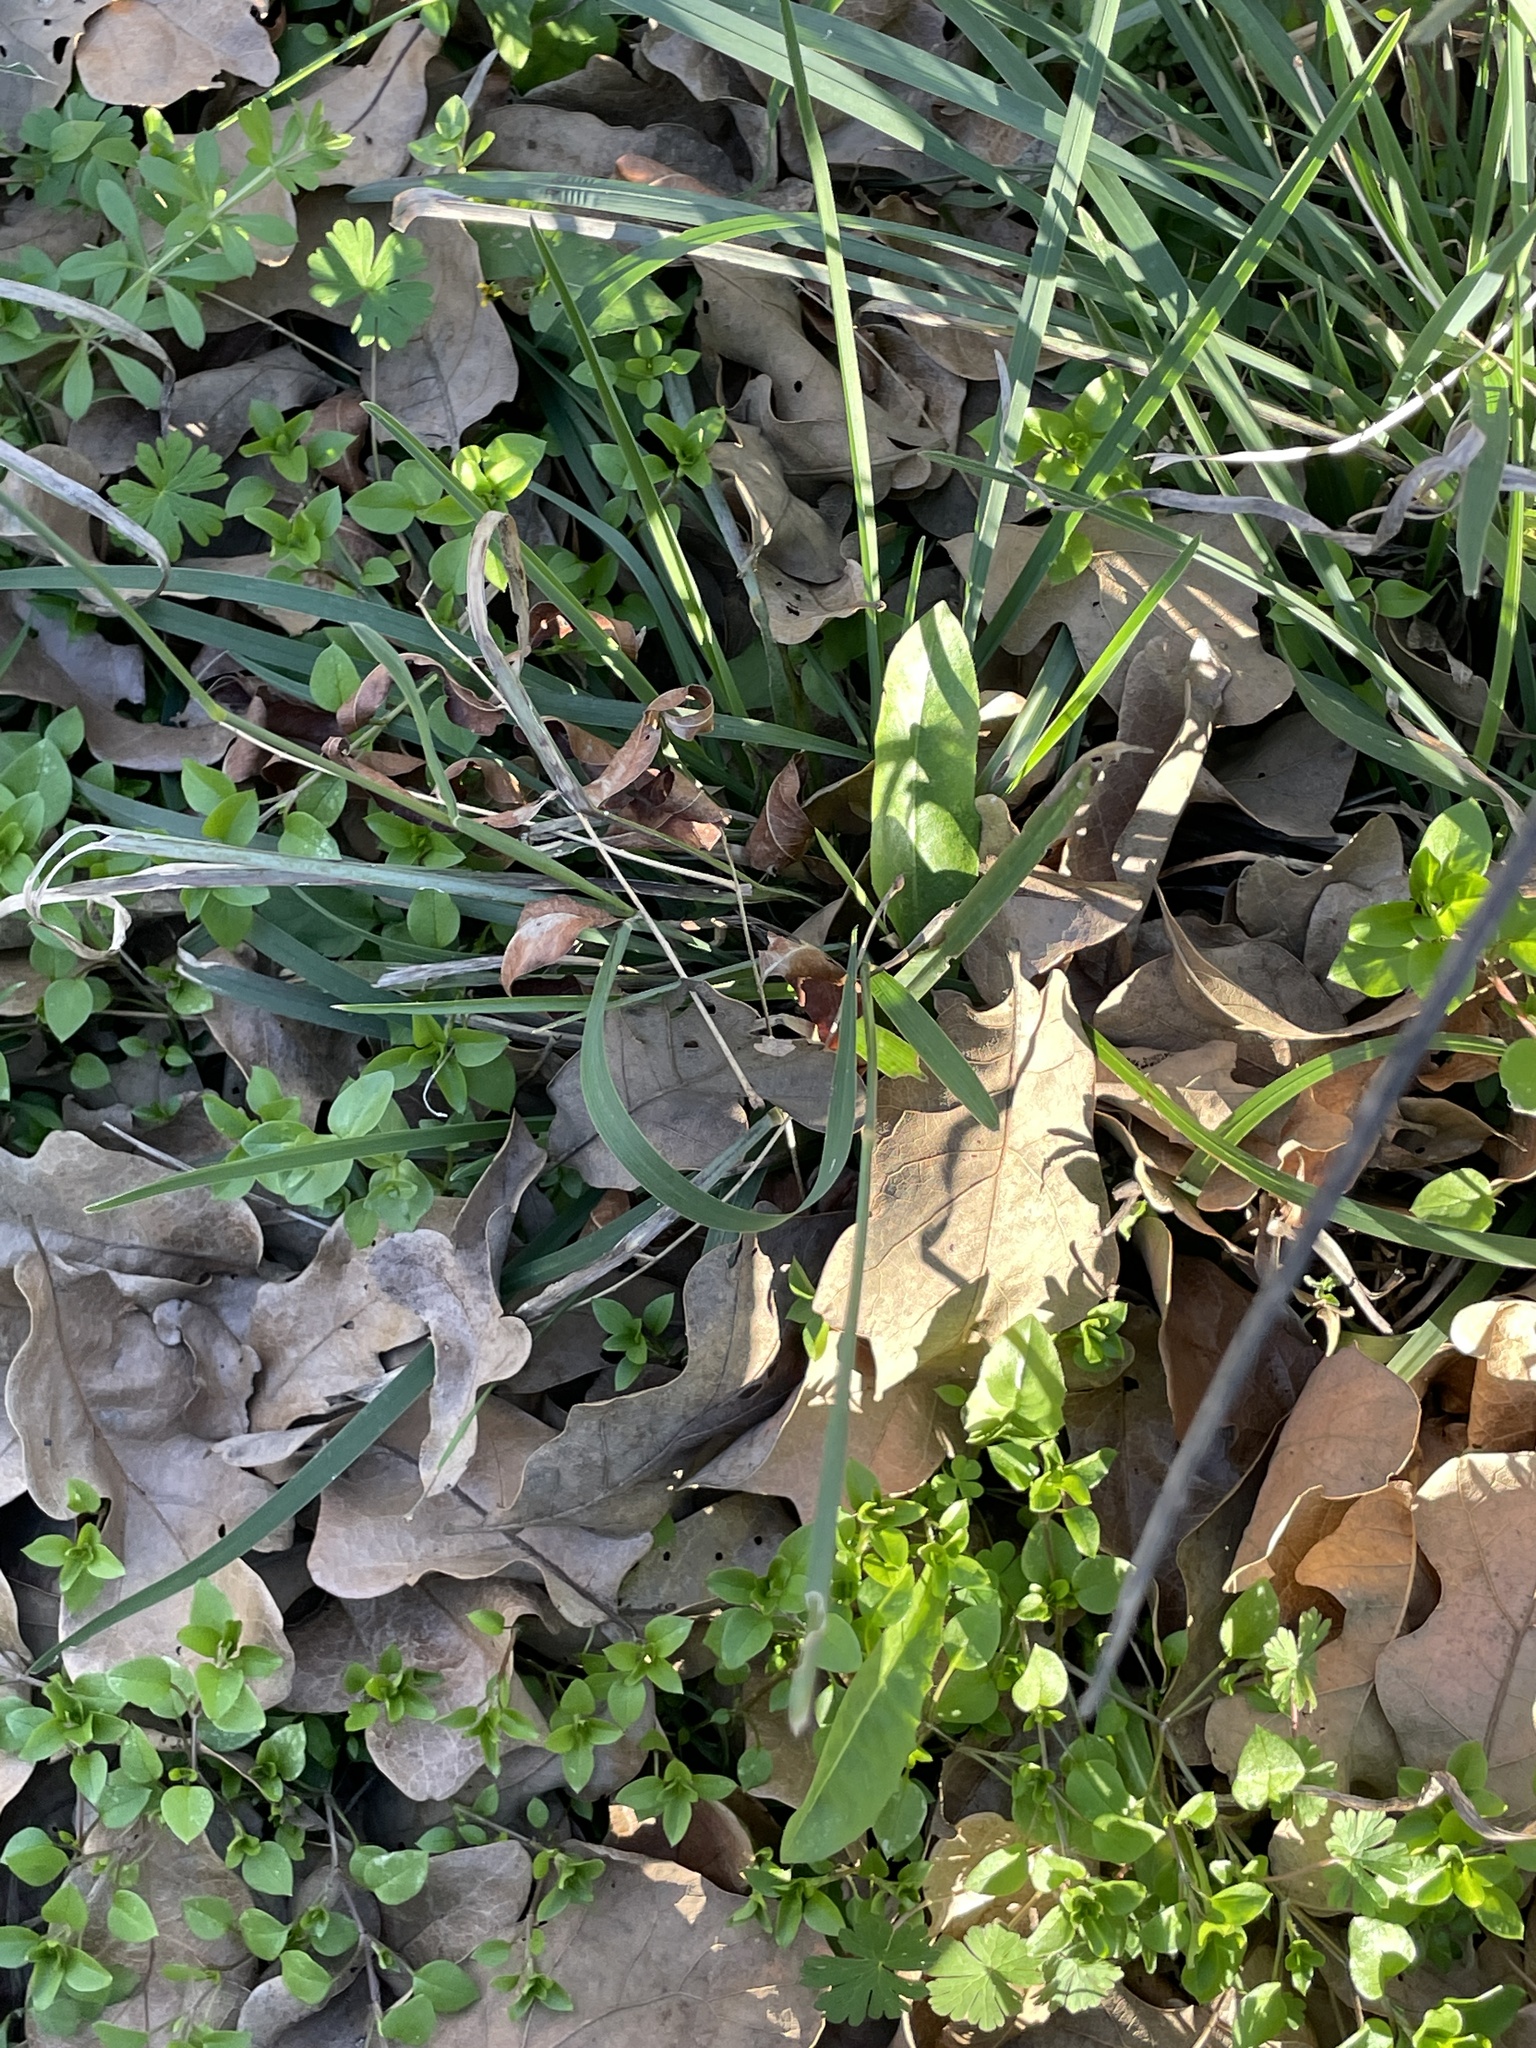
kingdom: Plantae
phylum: Tracheophyta
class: Liliopsida
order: Poales
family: Poaceae
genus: Eustachys
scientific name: Eustachys caribaea
